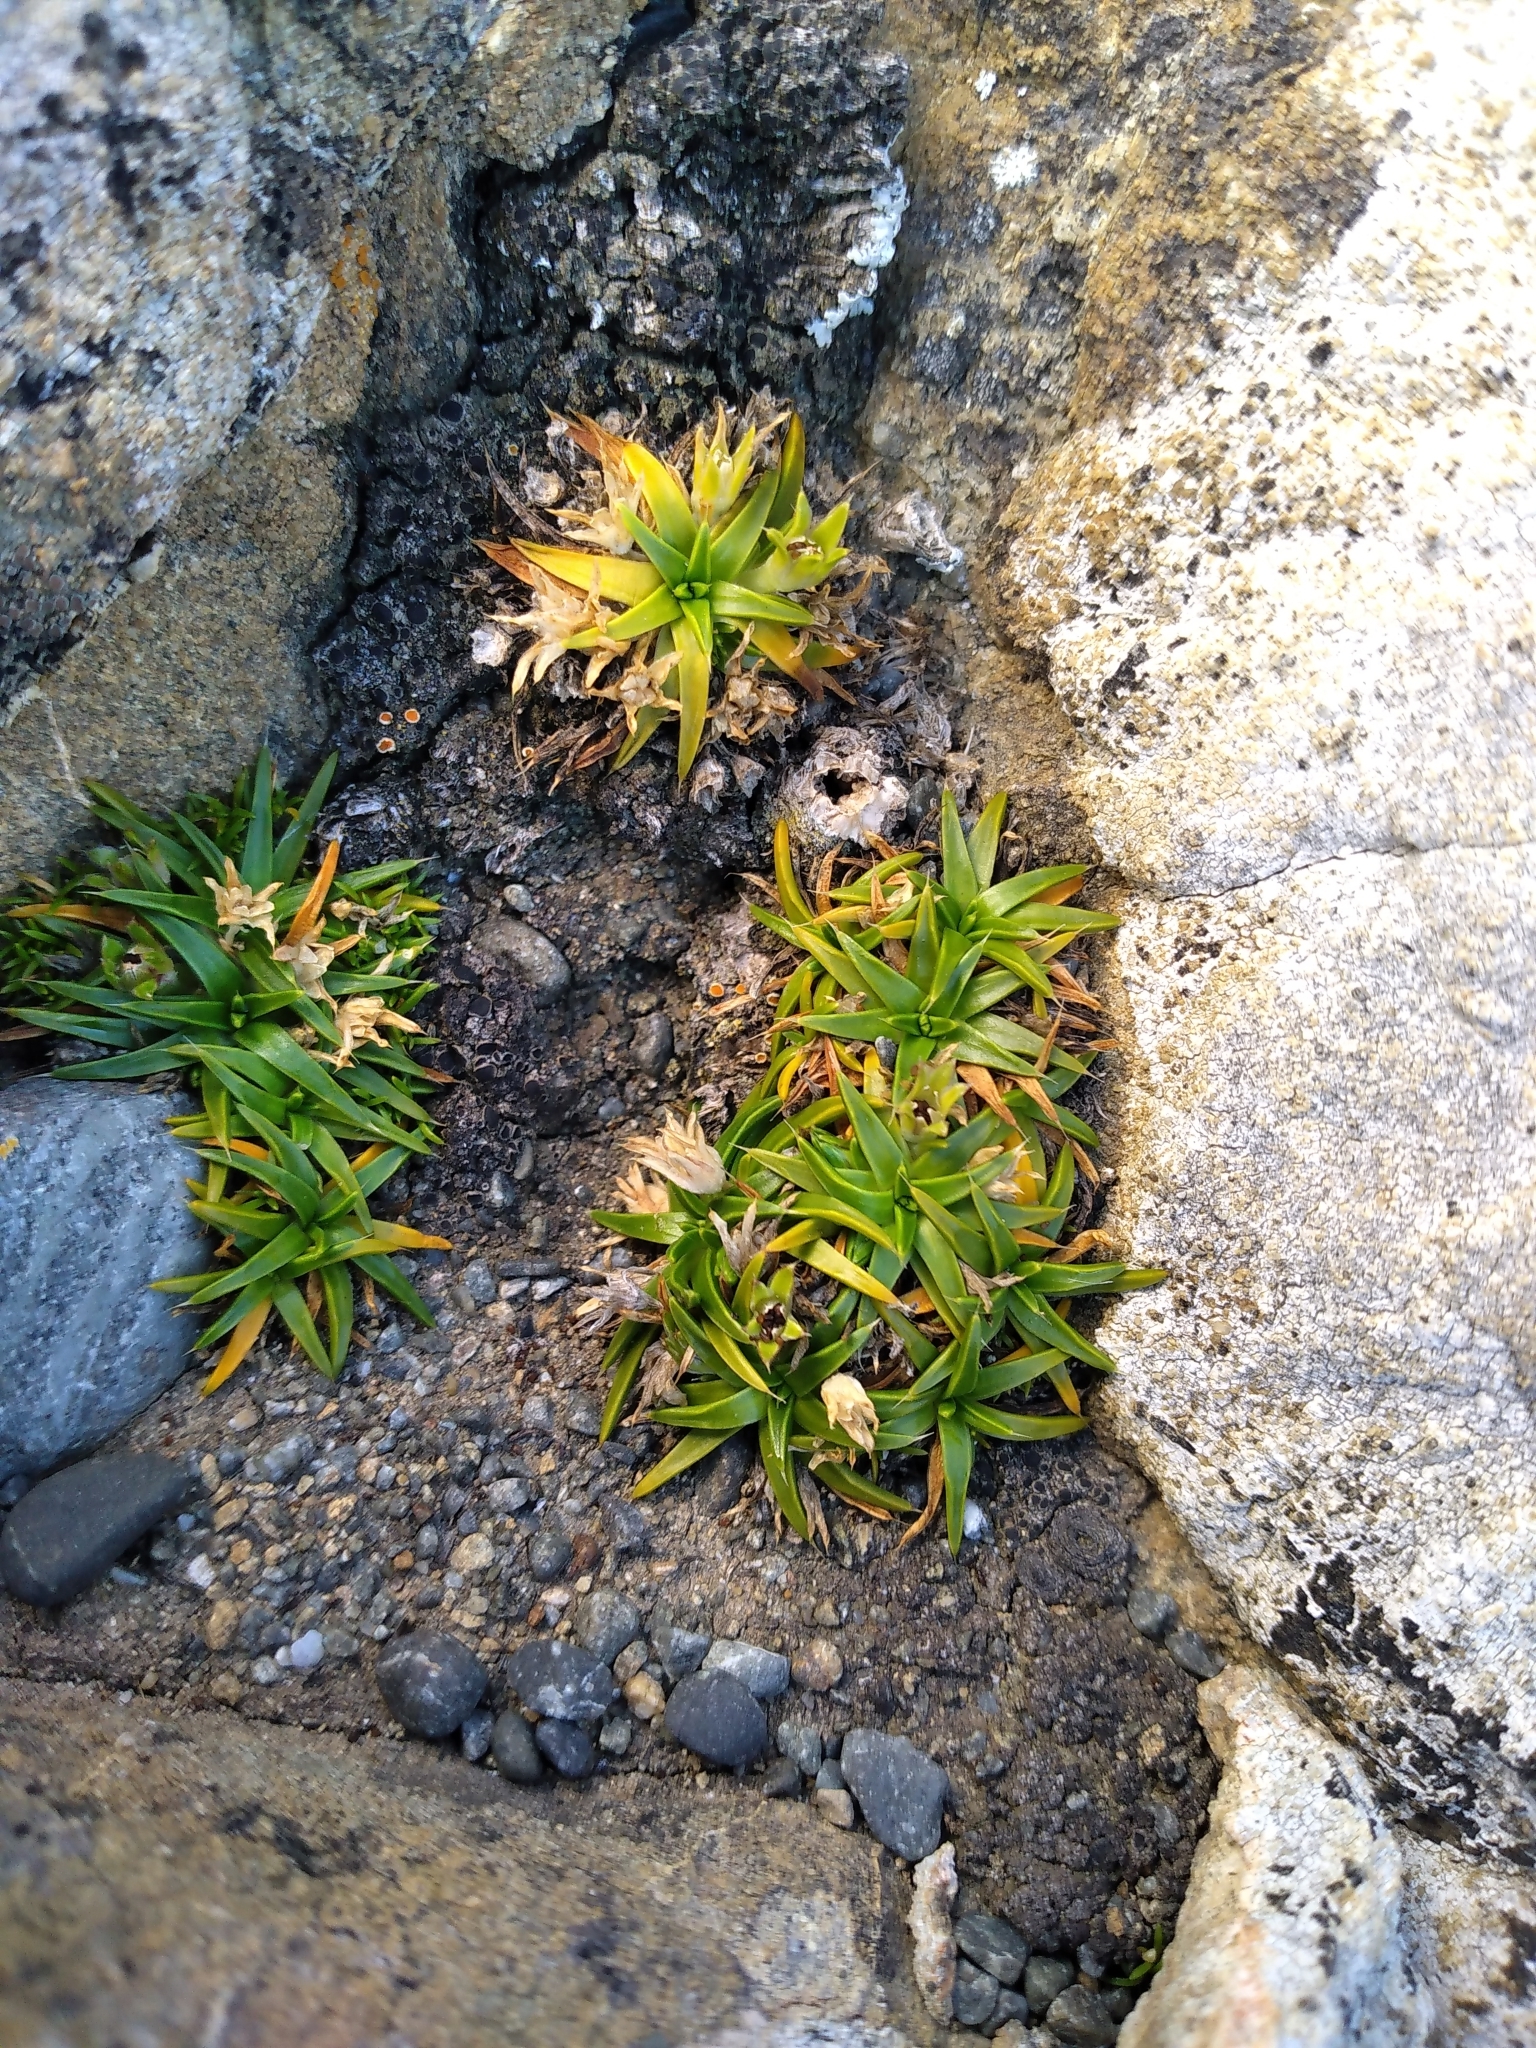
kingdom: Plantae
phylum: Tracheophyta
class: Magnoliopsida
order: Caryophyllales
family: Caryophyllaceae
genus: Colobanthus
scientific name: Colobanthus muelleri
